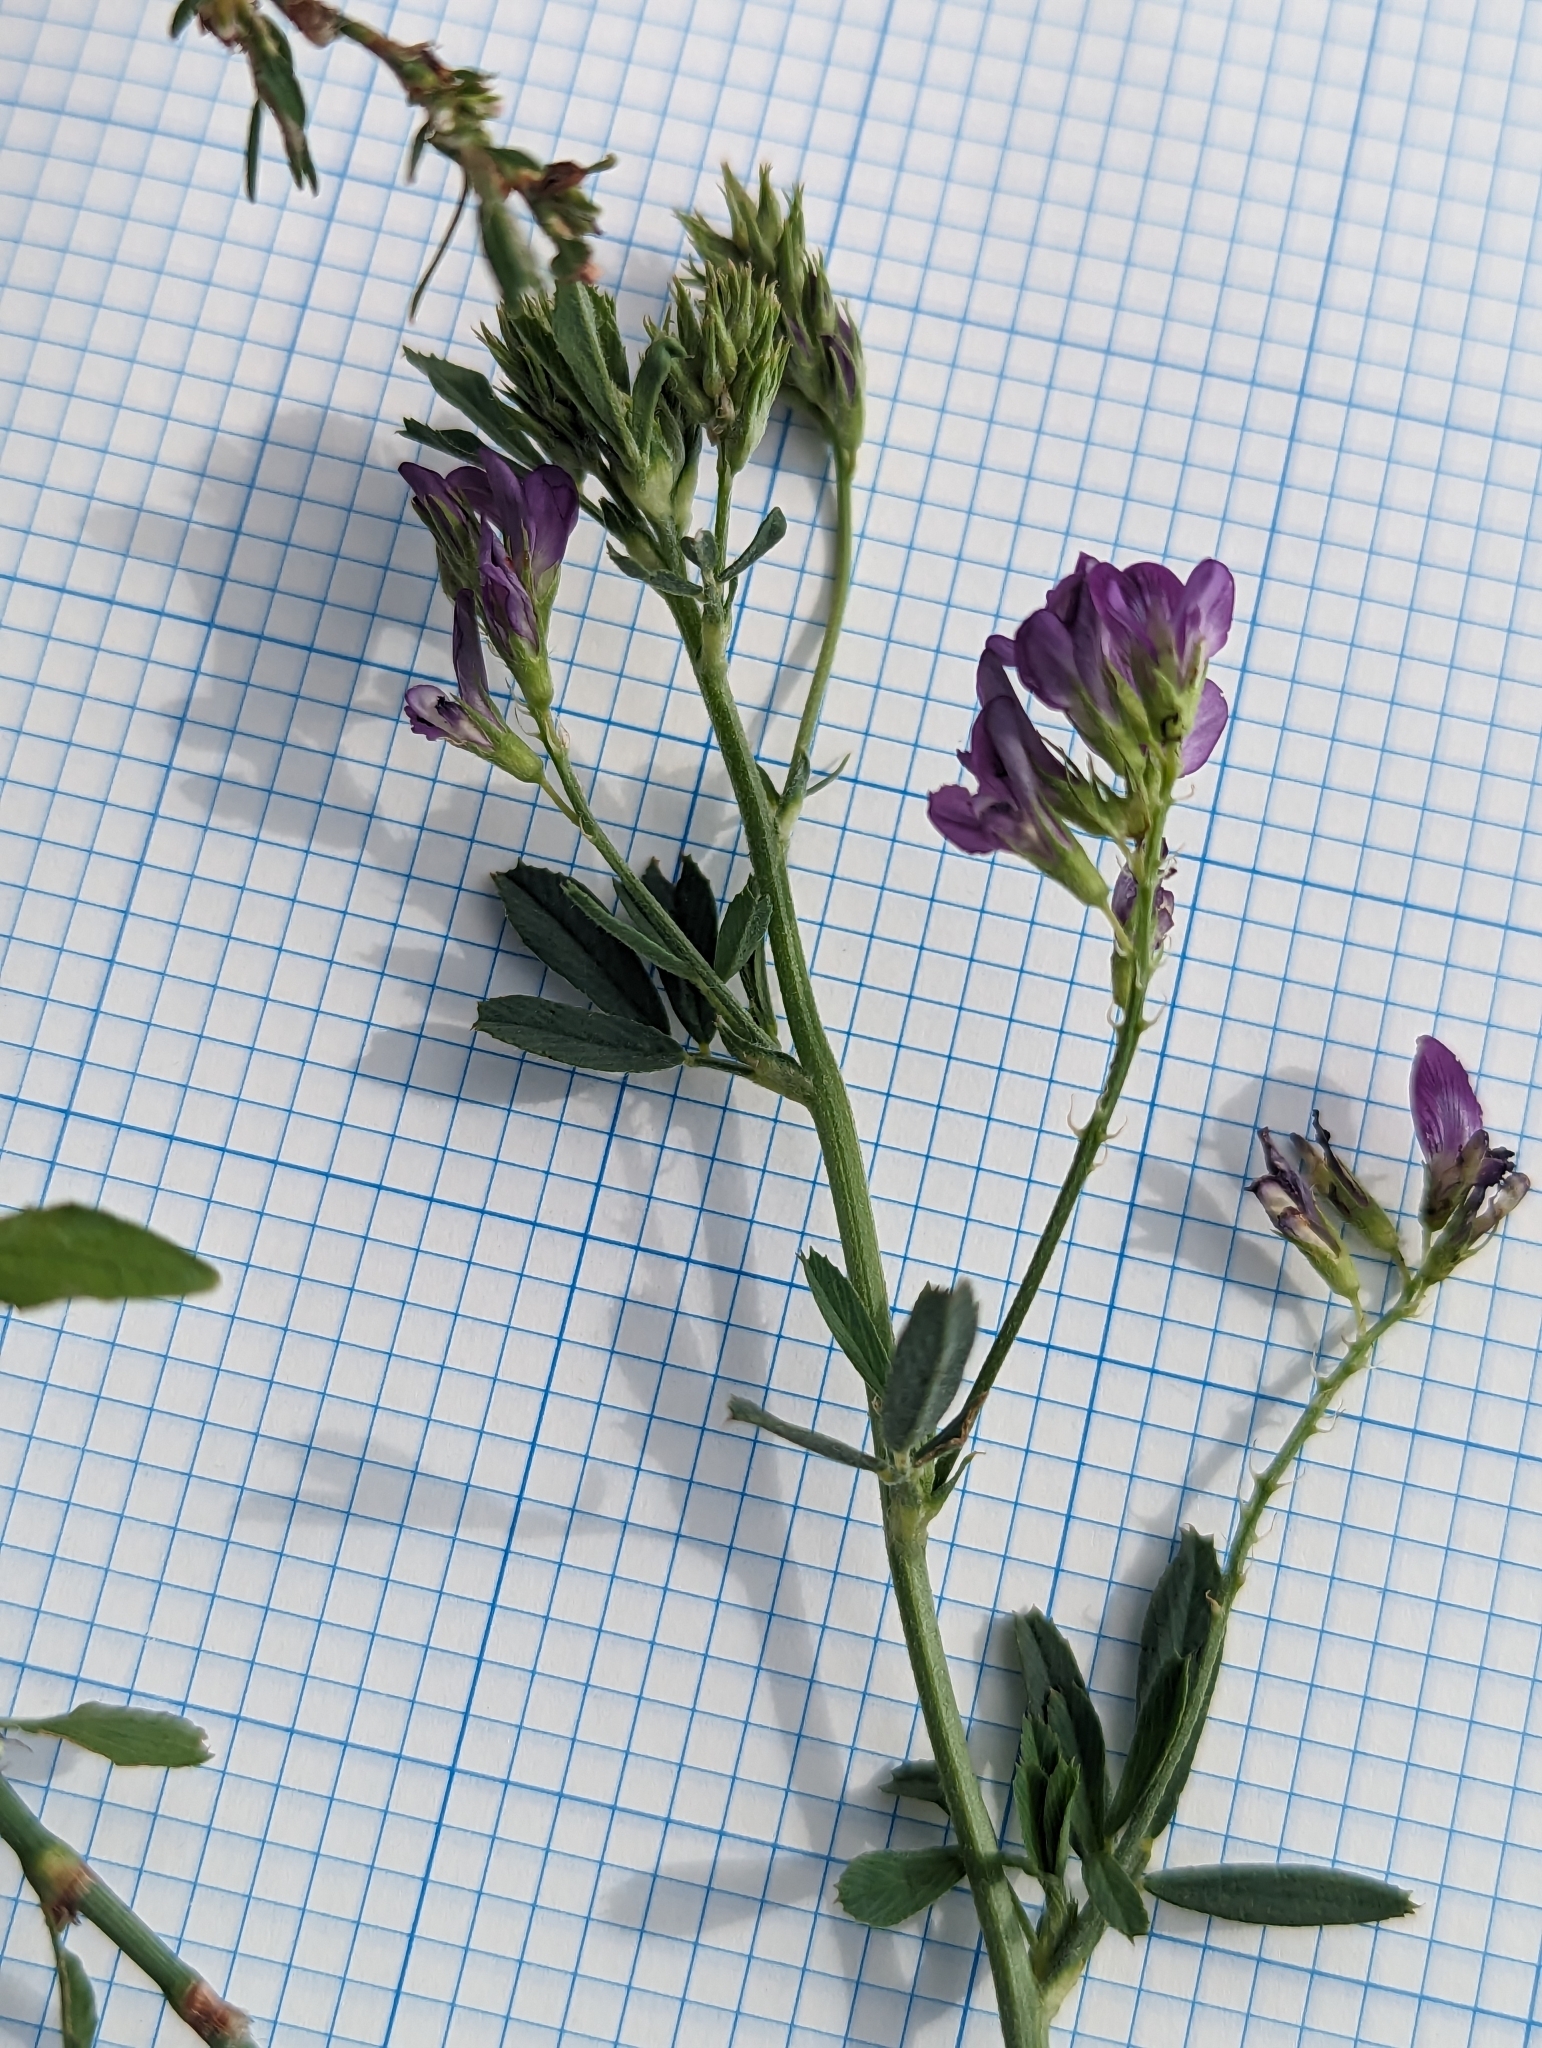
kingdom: Plantae
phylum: Tracheophyta
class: Magnoliopsida
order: Fabales
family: Fabaceae
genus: Medicago
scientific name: Medicago sativa
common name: Alfalfa
